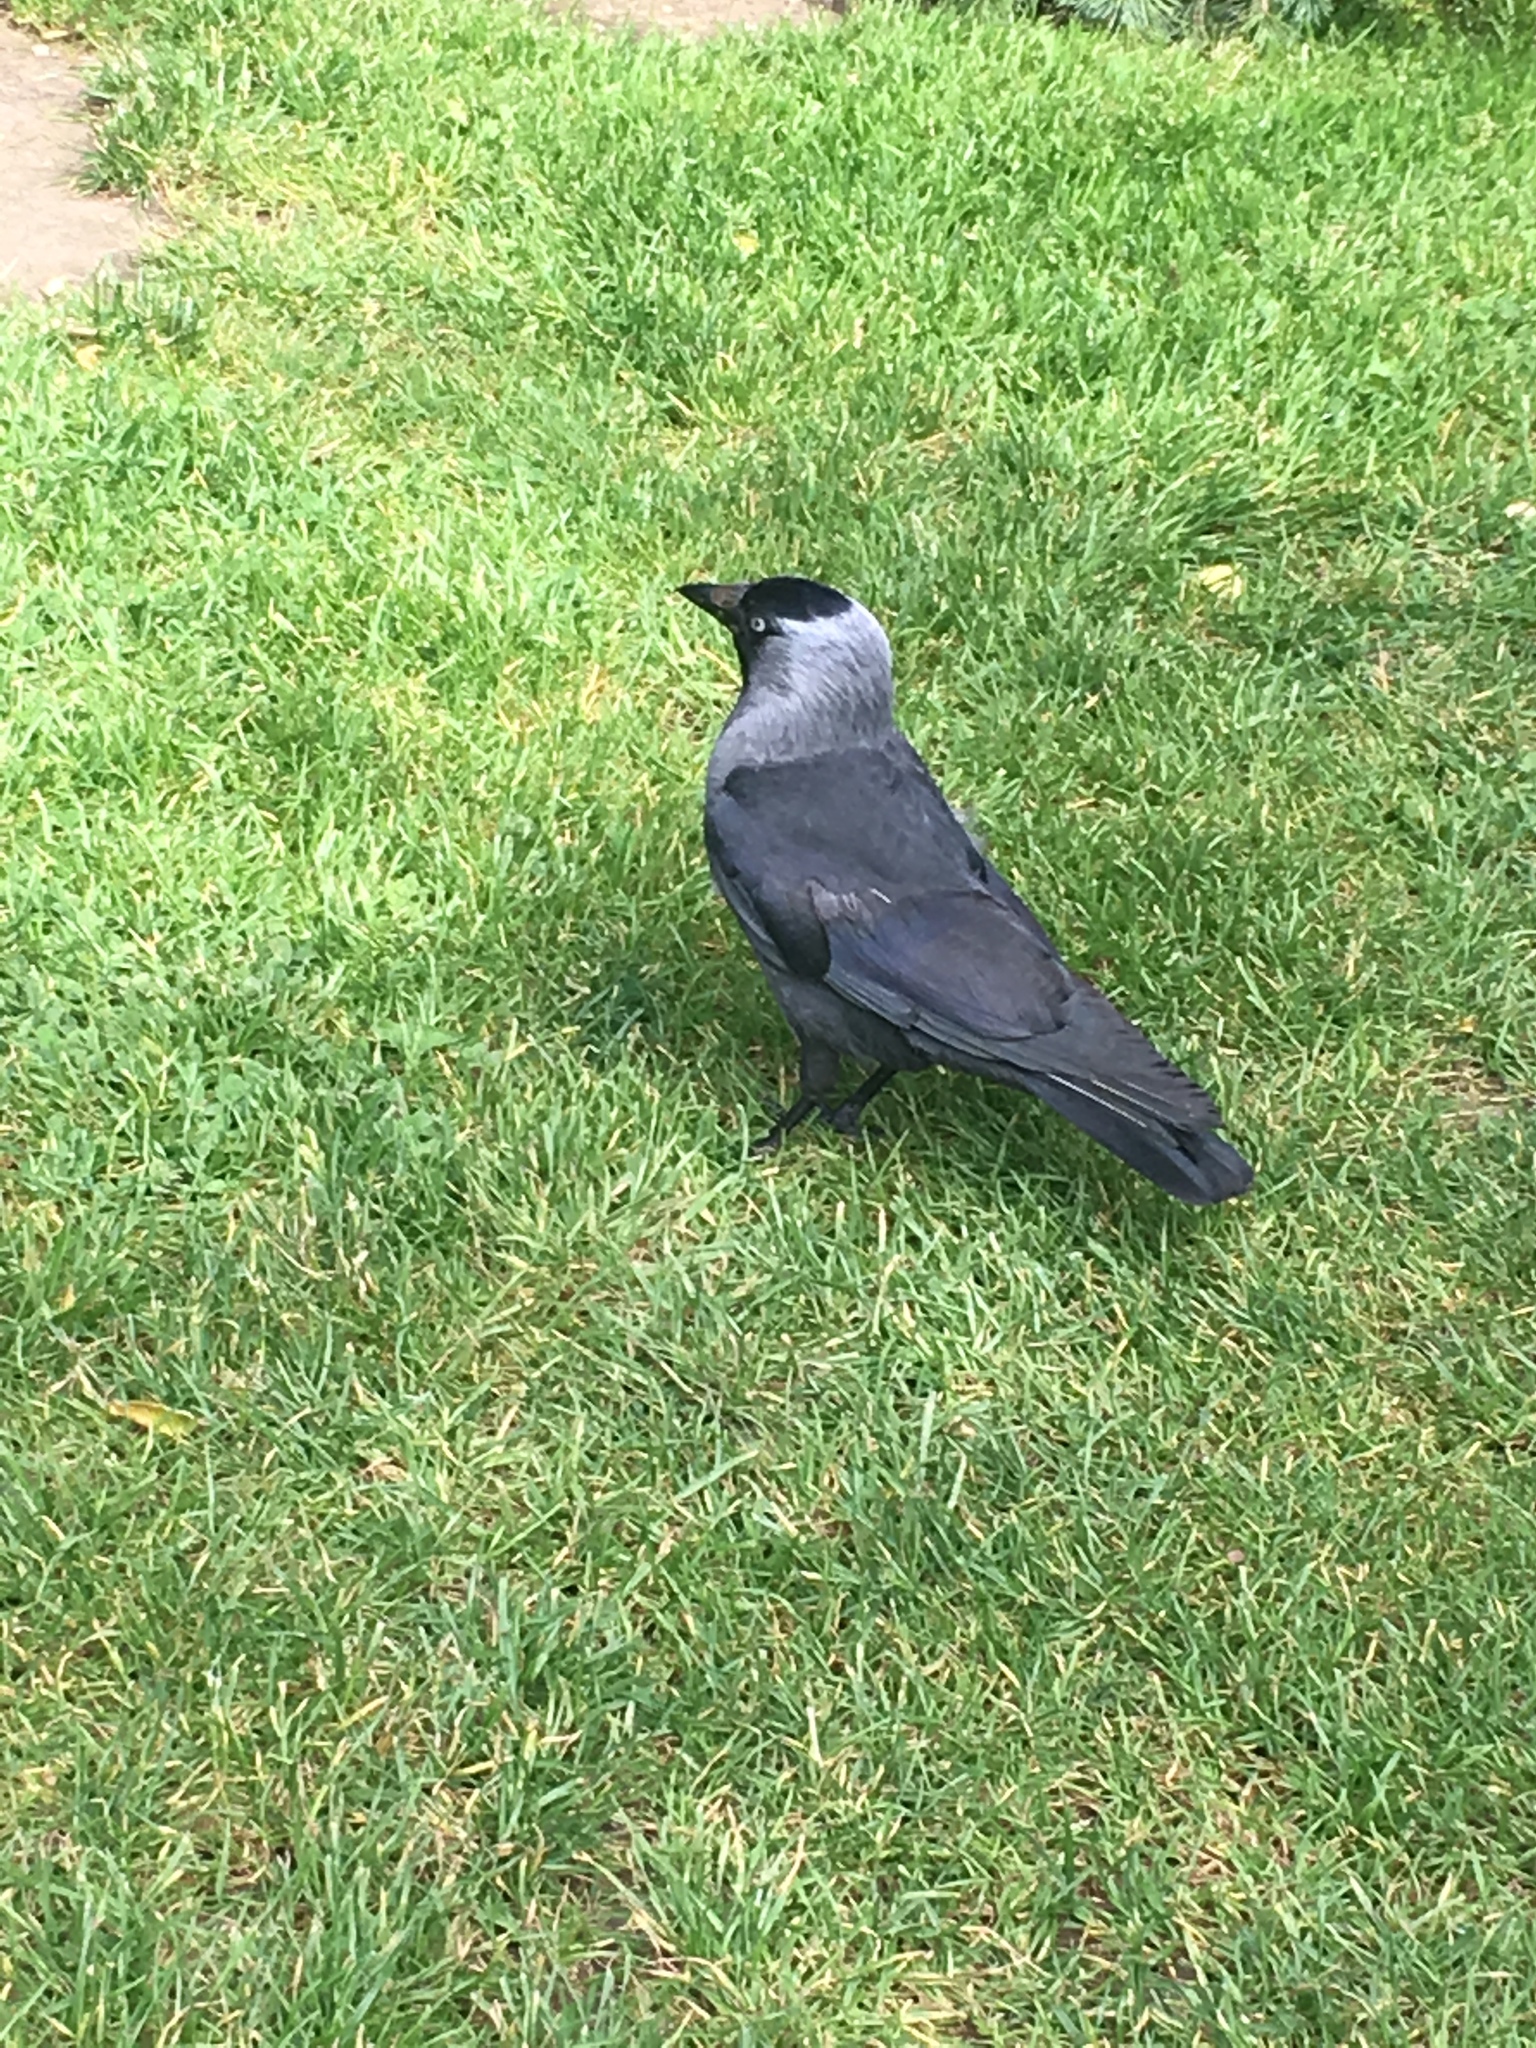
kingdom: Animalia
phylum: Chordata
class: Aves
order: Passeriformes
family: Corvidae
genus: Coloeus
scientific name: Coloeus monedula
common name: Western jackdaw
